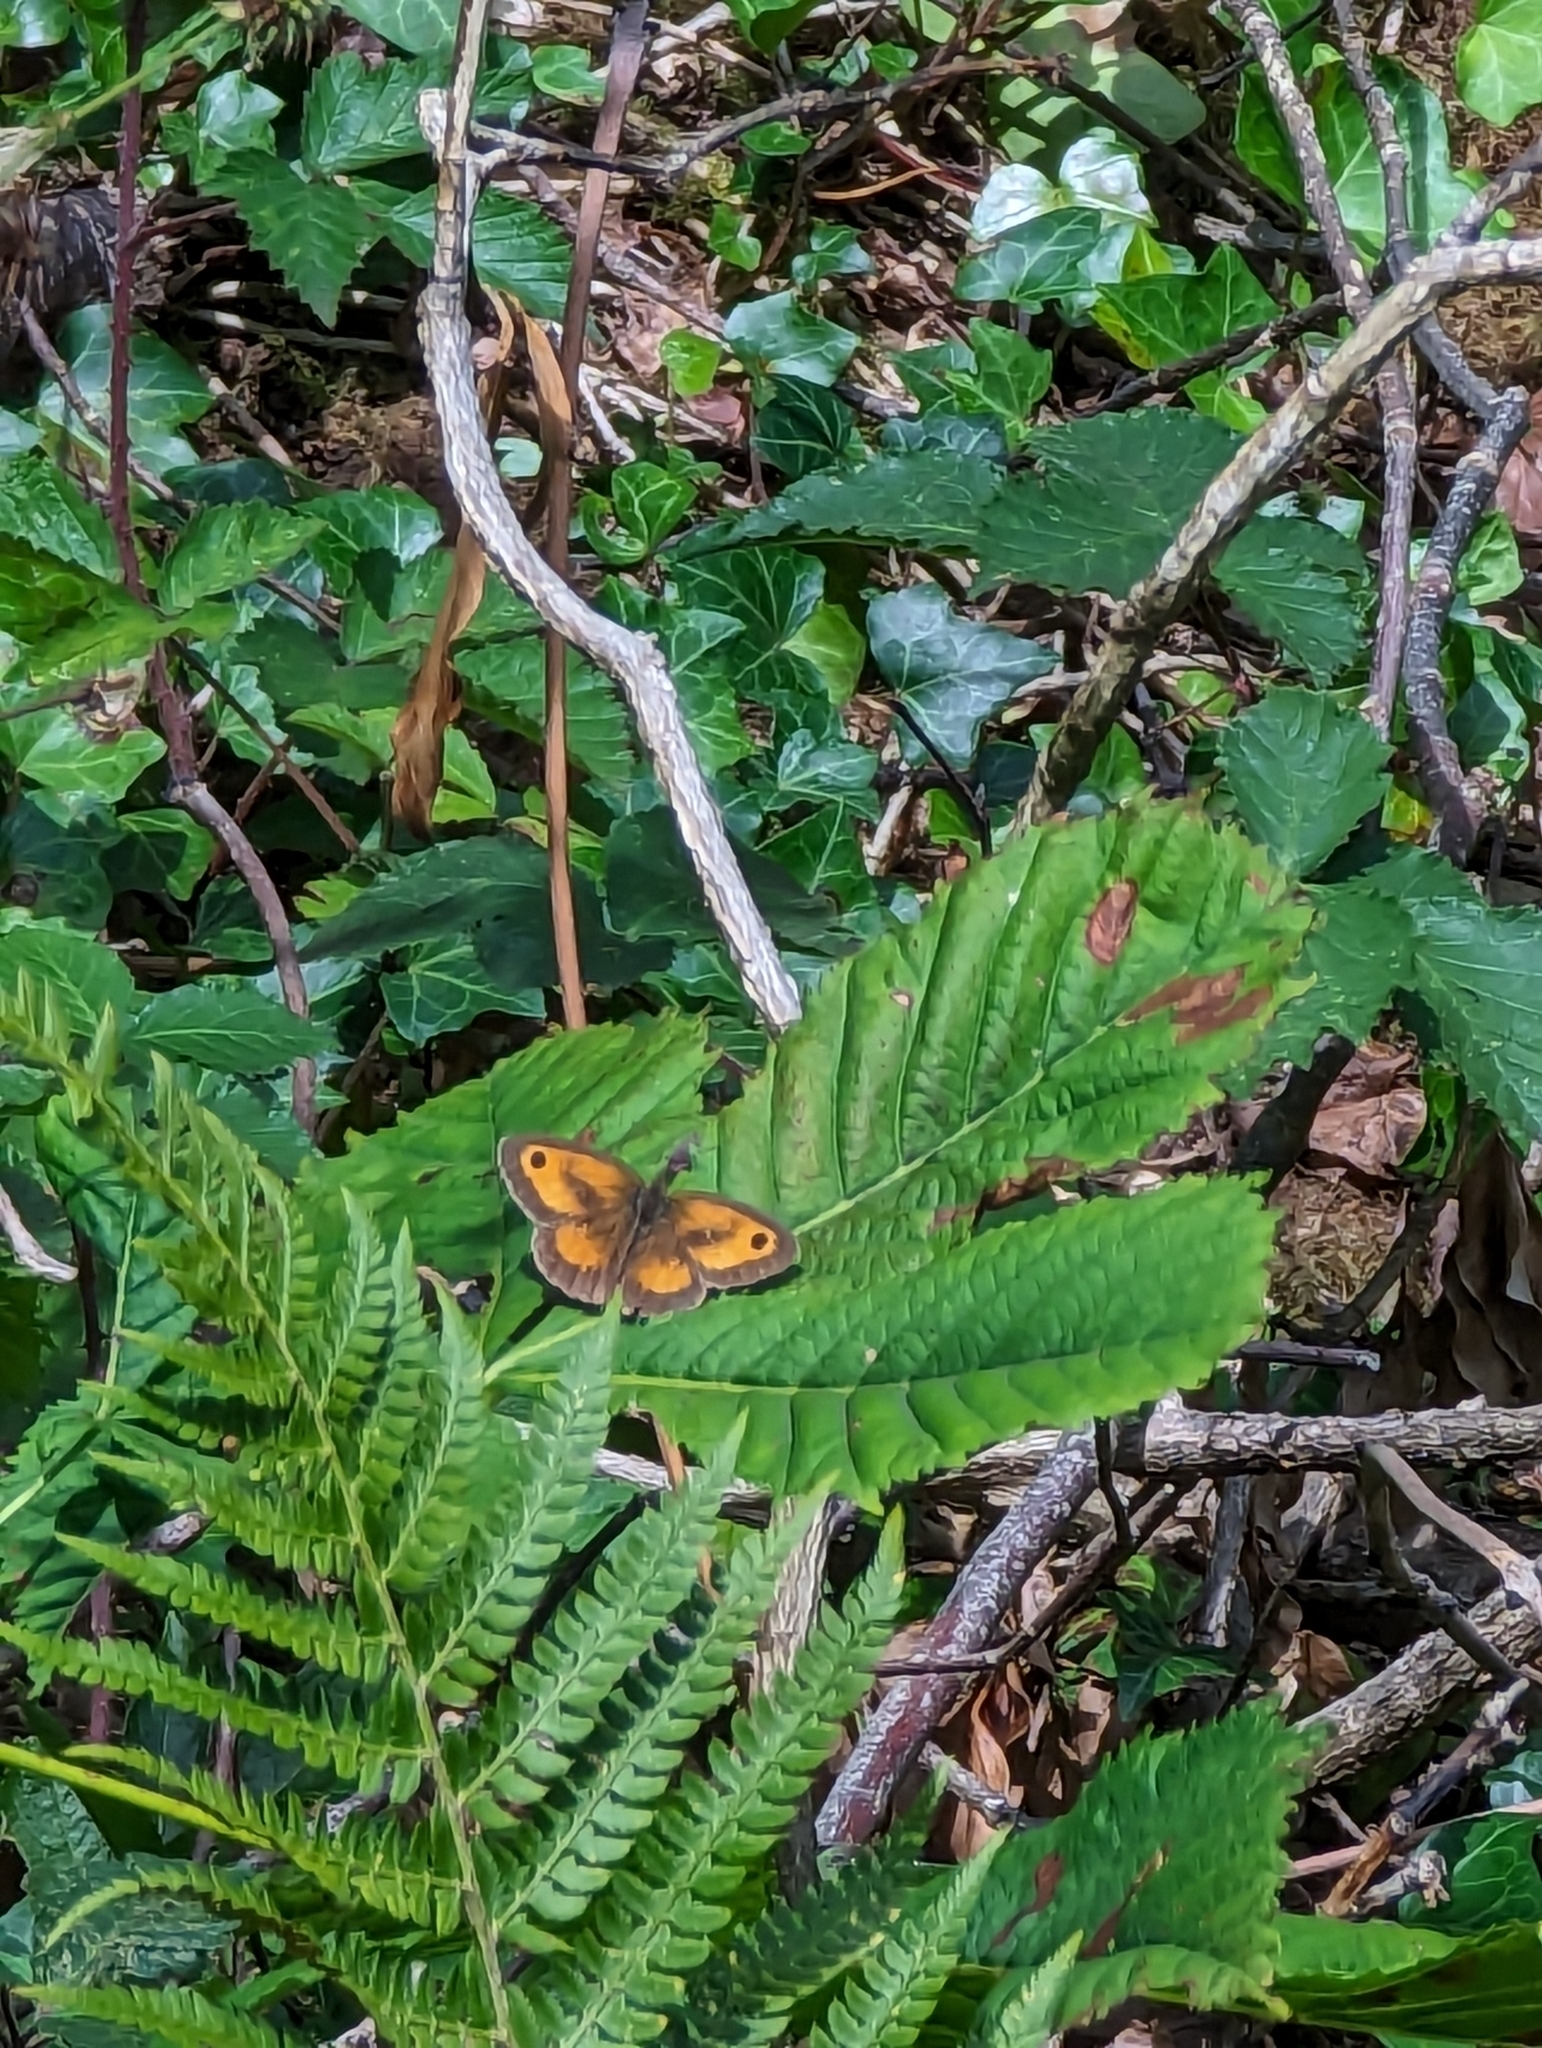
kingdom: Animalia
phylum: Arthropoda
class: Insecta
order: Lepidoptera
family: Nymphalidae
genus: Pyronia
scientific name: Pyronia tithonus
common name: Gatekeeper
